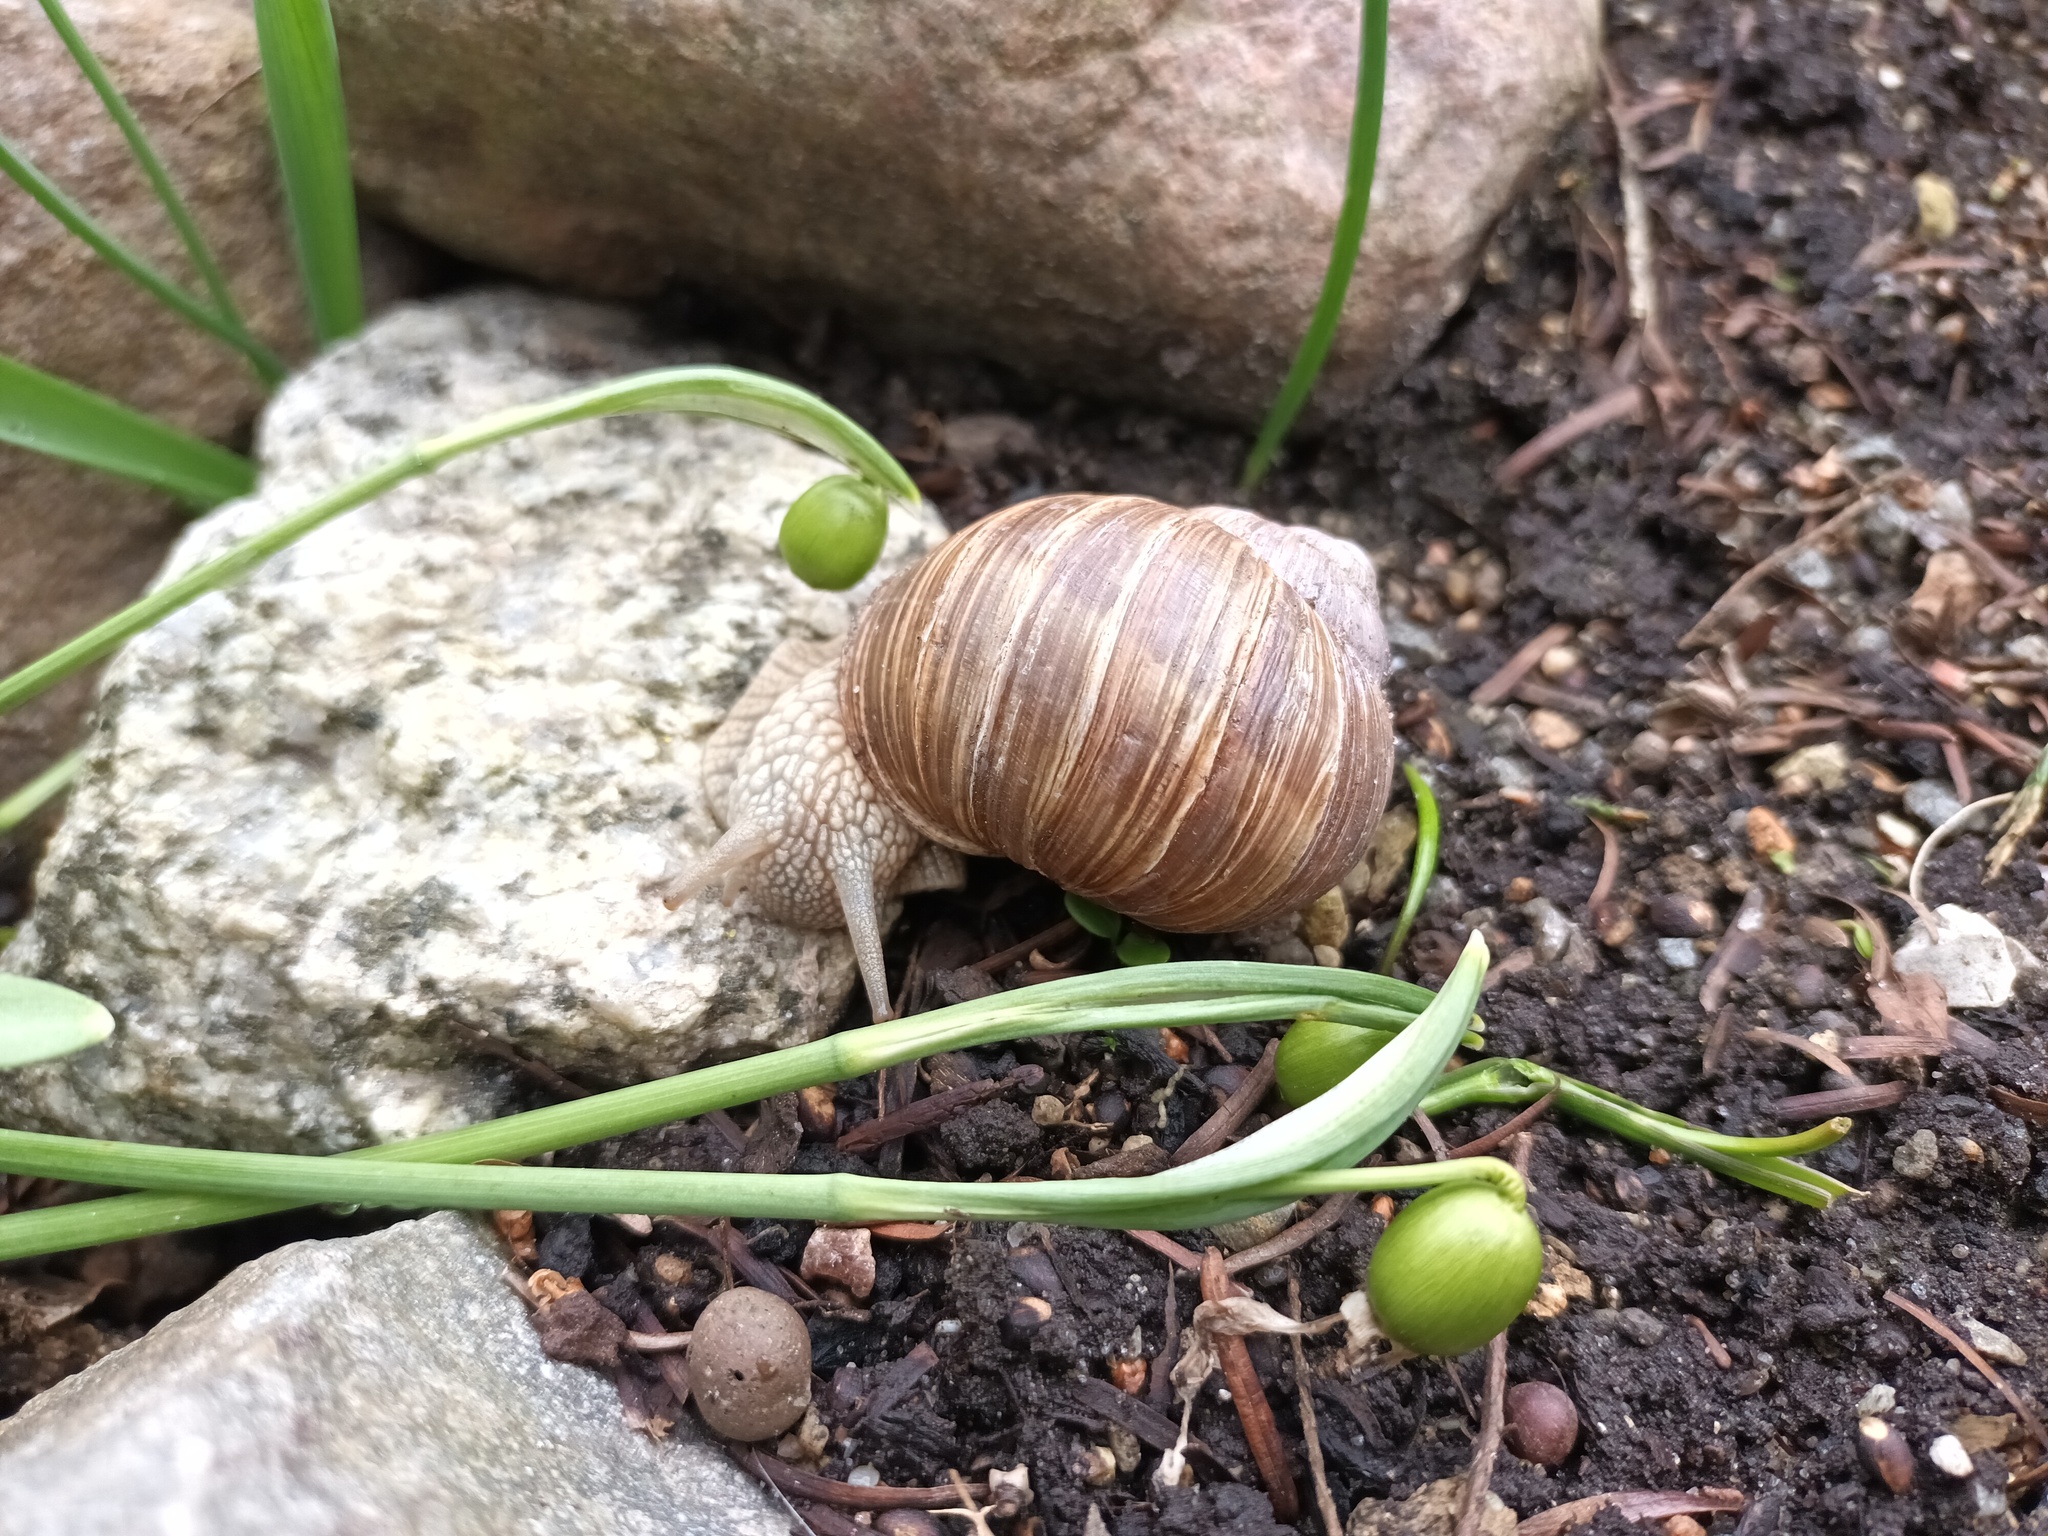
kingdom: Animalia
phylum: Mollusca
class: Gastropoda
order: Stylommatophora
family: Helicidae
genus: Helix
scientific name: Helix pomatia
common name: Roman snail
